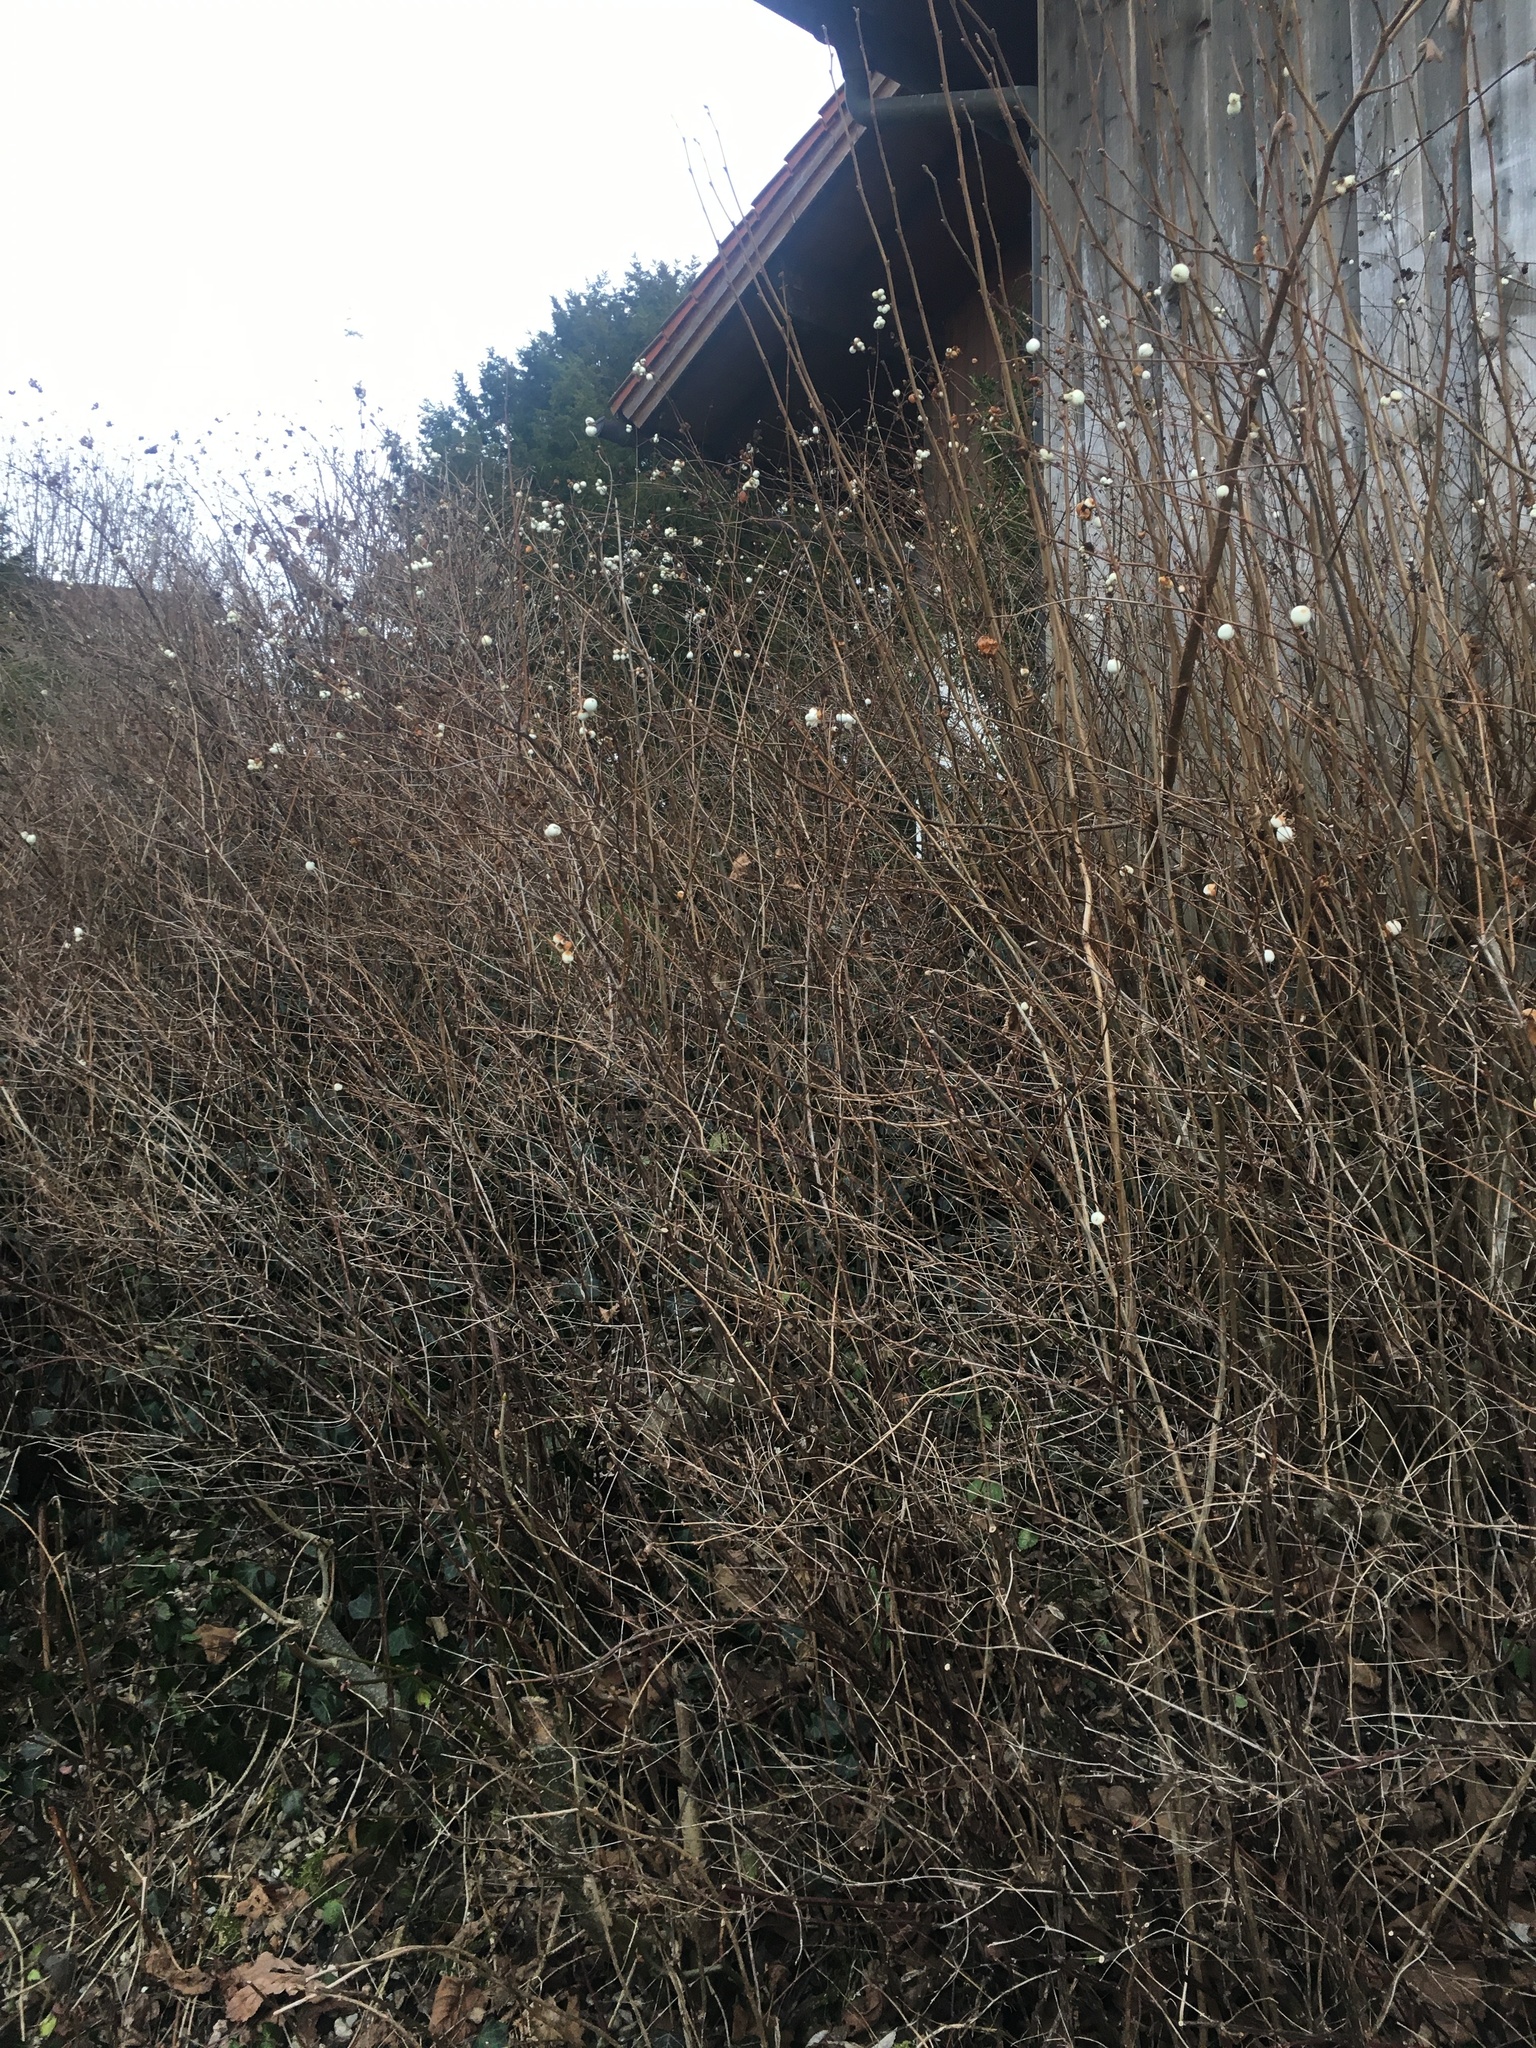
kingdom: Plantae
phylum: Tracheophyta
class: Magnoliopsida
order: Dipsacales
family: Caprifoliaceae
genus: Symphoricarpos
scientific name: Symphoricarpos albus
